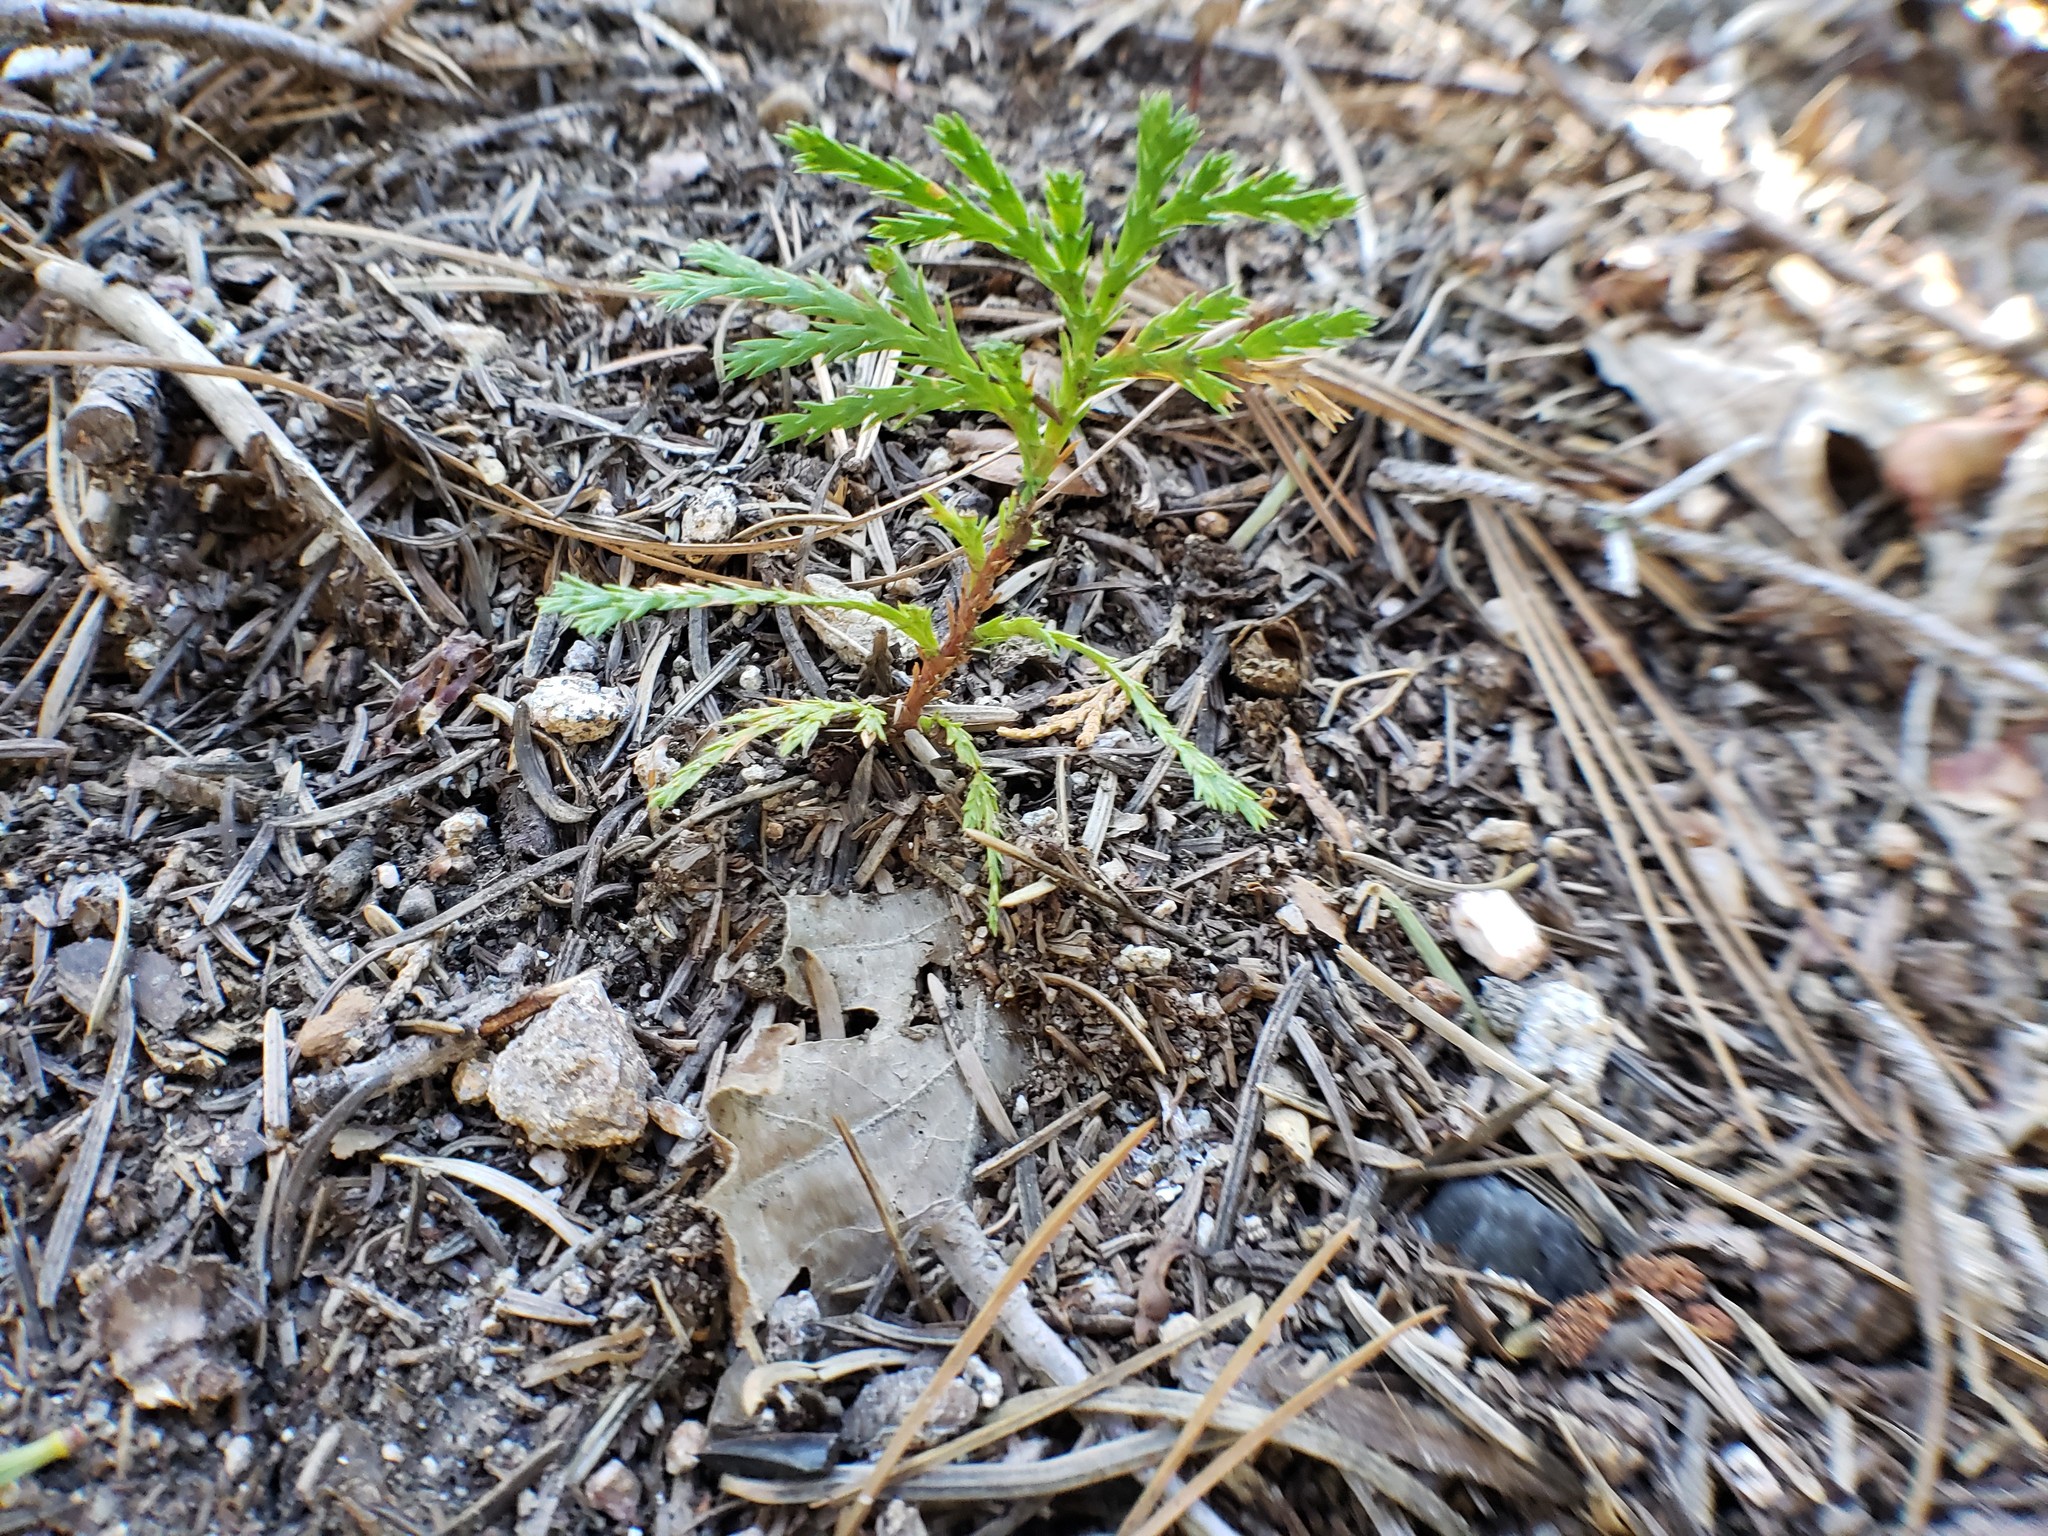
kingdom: Plantae
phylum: Tracheophyta
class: Pinopsida
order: Pinales
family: Cupressaceae
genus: Calocedrus
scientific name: Calocedrus decurrens
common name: Californian incense-cedar
